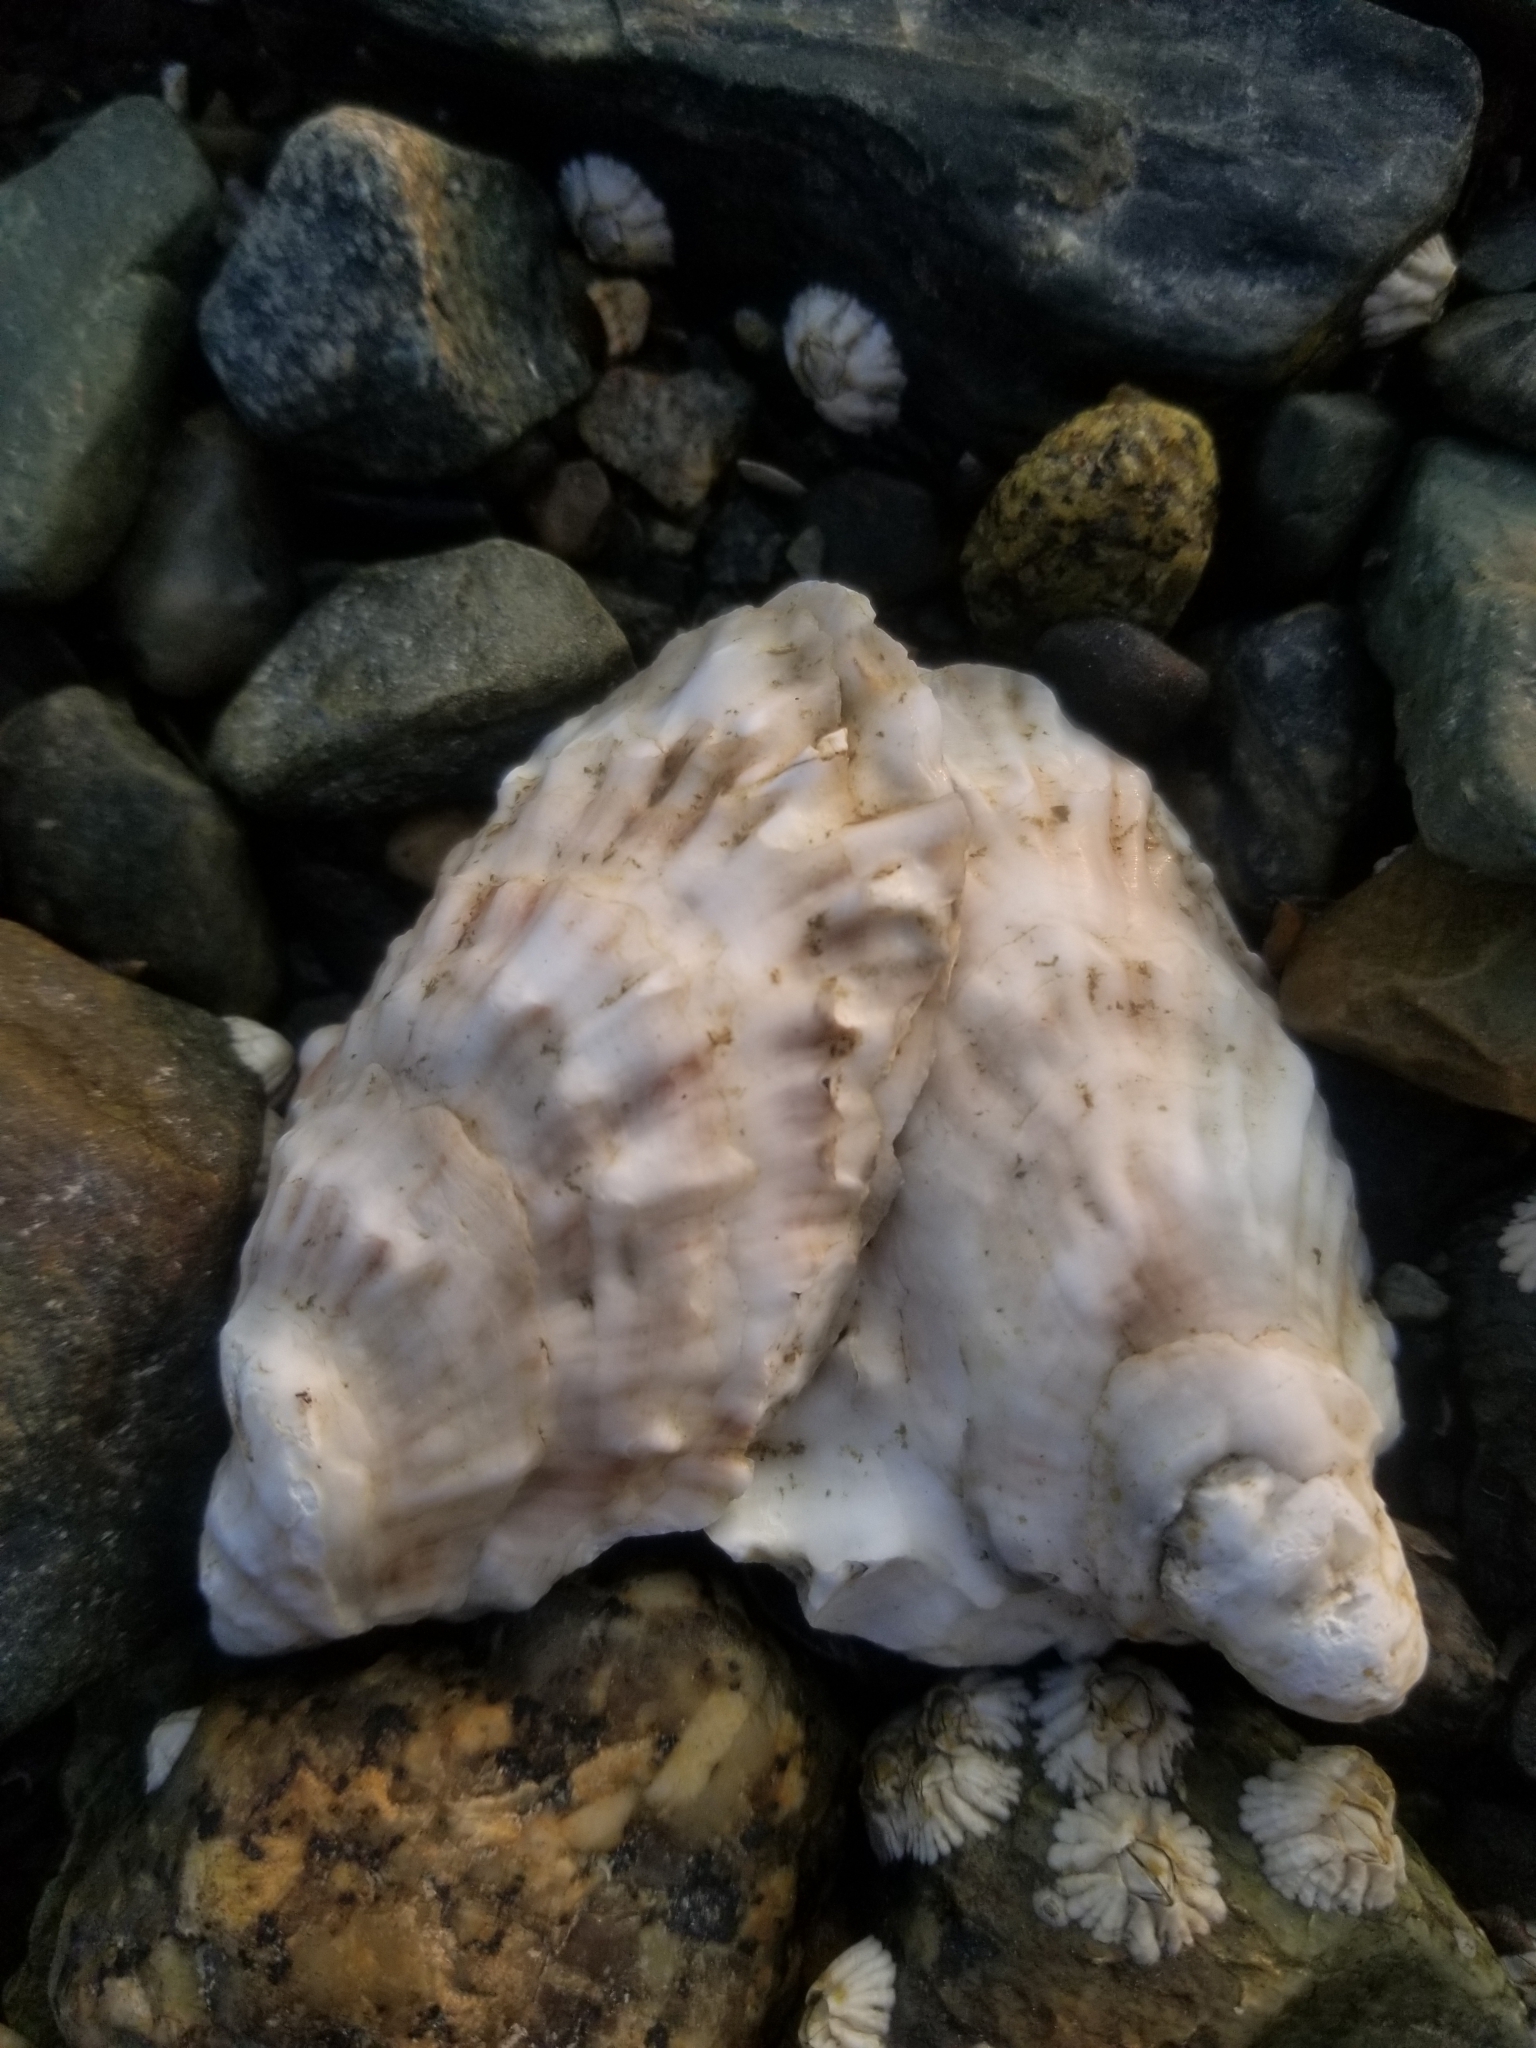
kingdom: Animalia
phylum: Mollusca
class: Bivalvia
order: Ostreida
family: Ostreidae
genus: Crassostrea
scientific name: Crassostrea virginica
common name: American oyster
